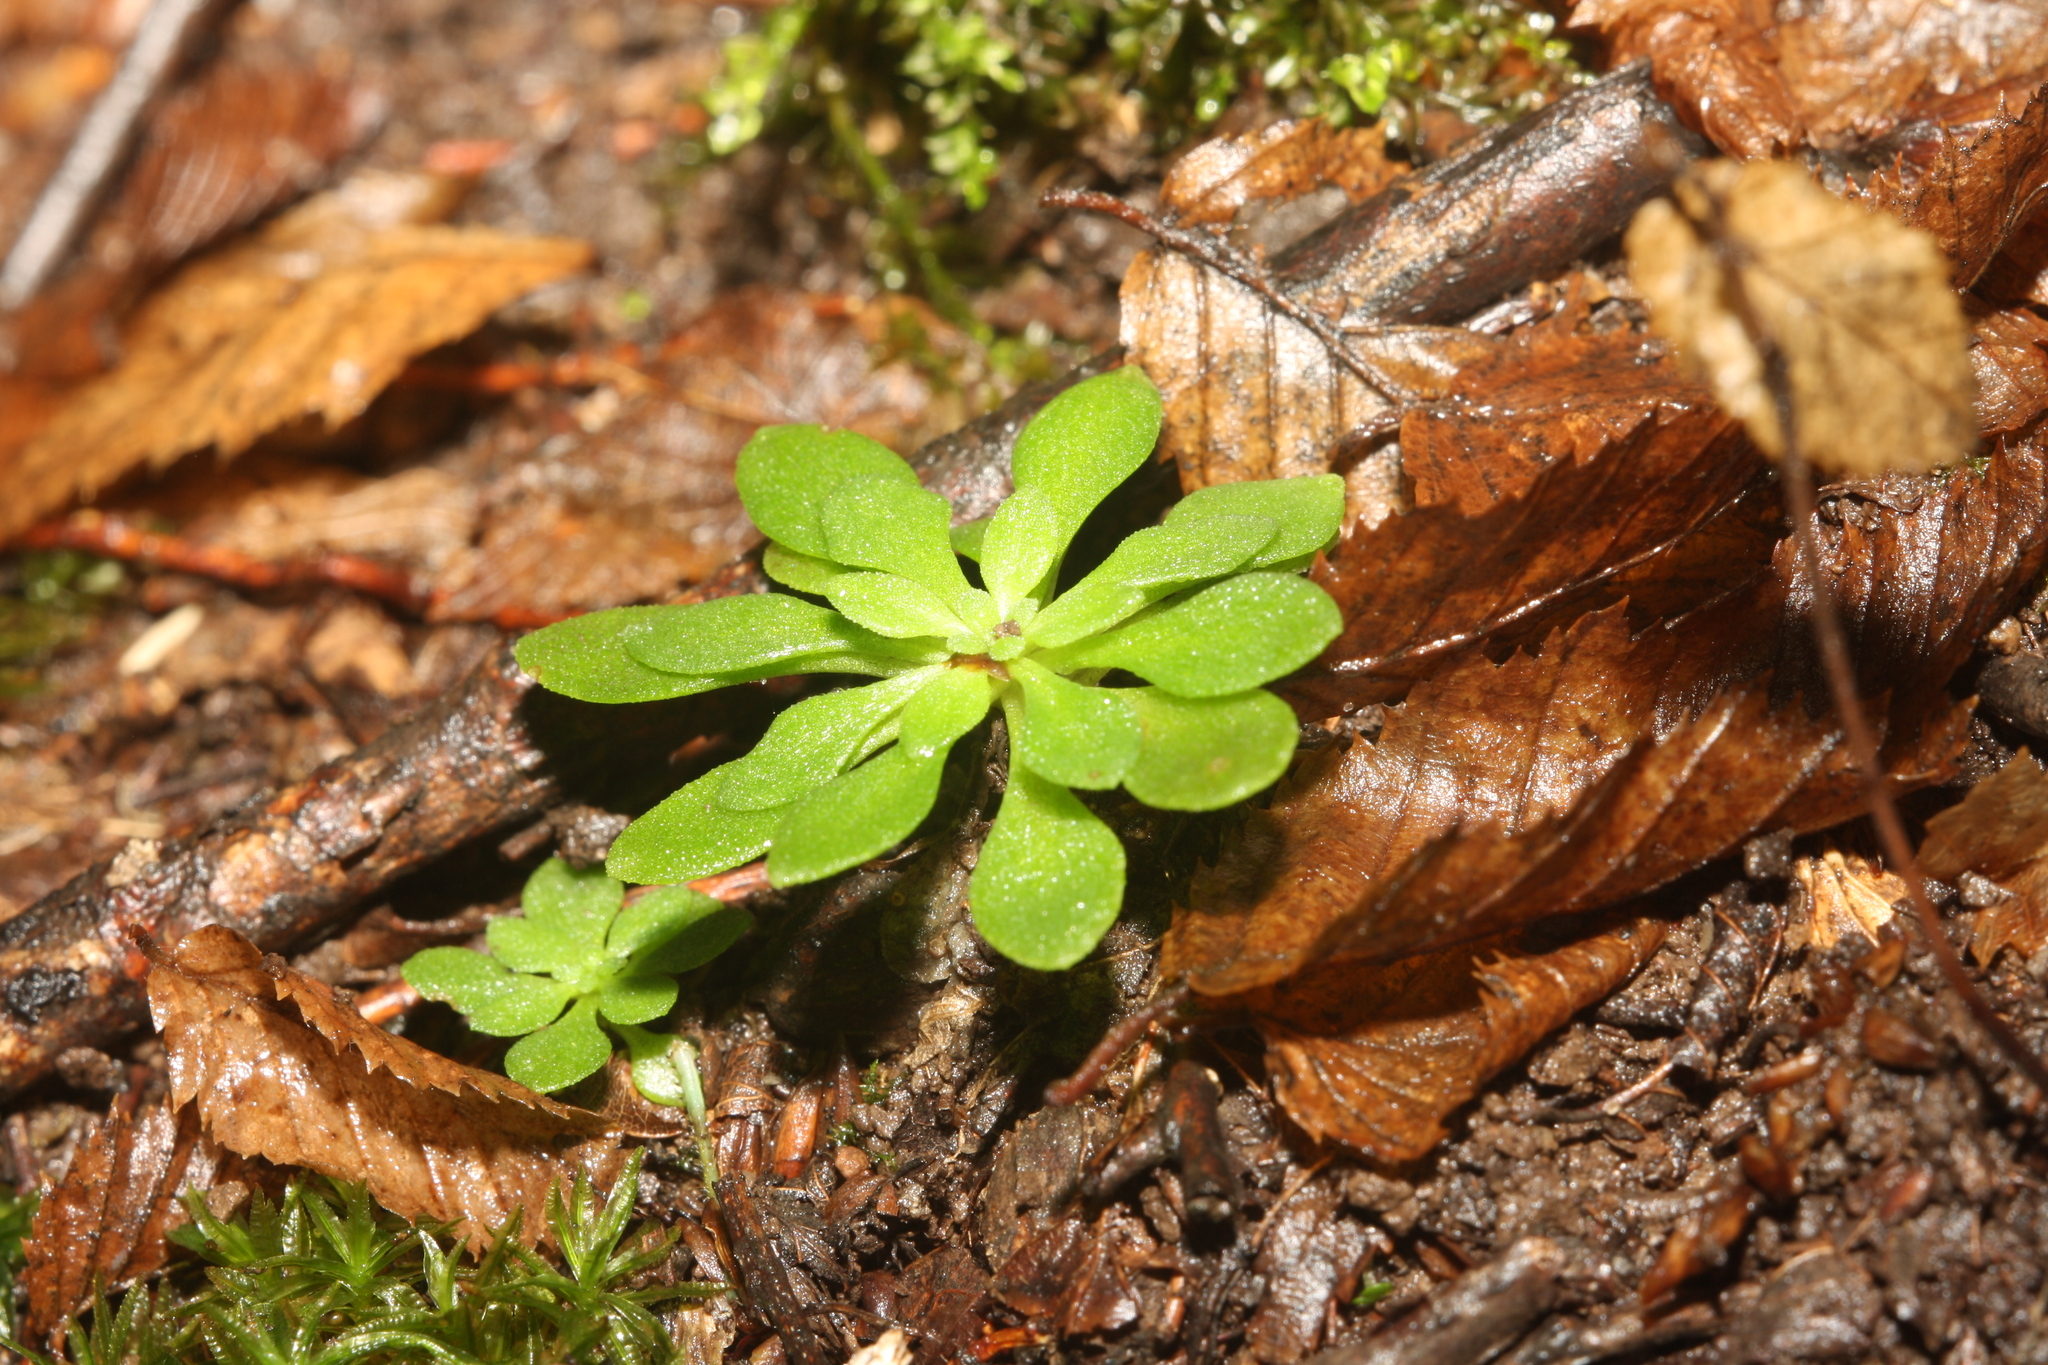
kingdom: Plantae
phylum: Tracheophyta
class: Magnoliopsida
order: Saxifragales
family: Crassulaceae
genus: Sedum
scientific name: Sedum cepaea
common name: Pink stonecrop
